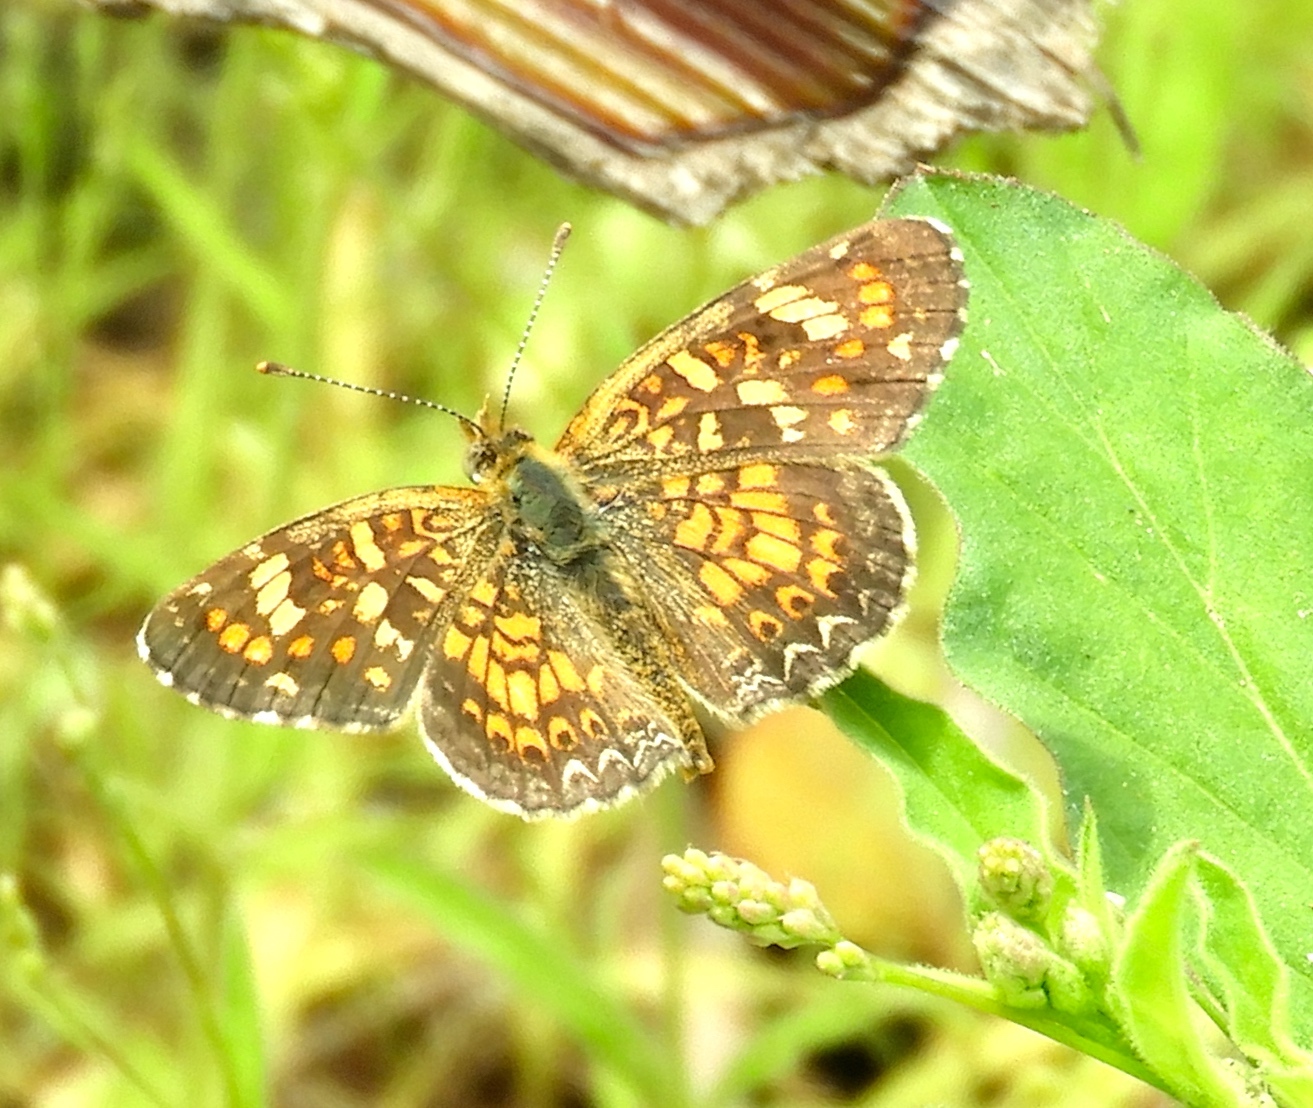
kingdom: Animalia
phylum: Arthropoda
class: Insecta
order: Lepidoptera
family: Nymphalidae
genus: Phyciodes
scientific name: Phyciodes picta
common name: Painted crescent
